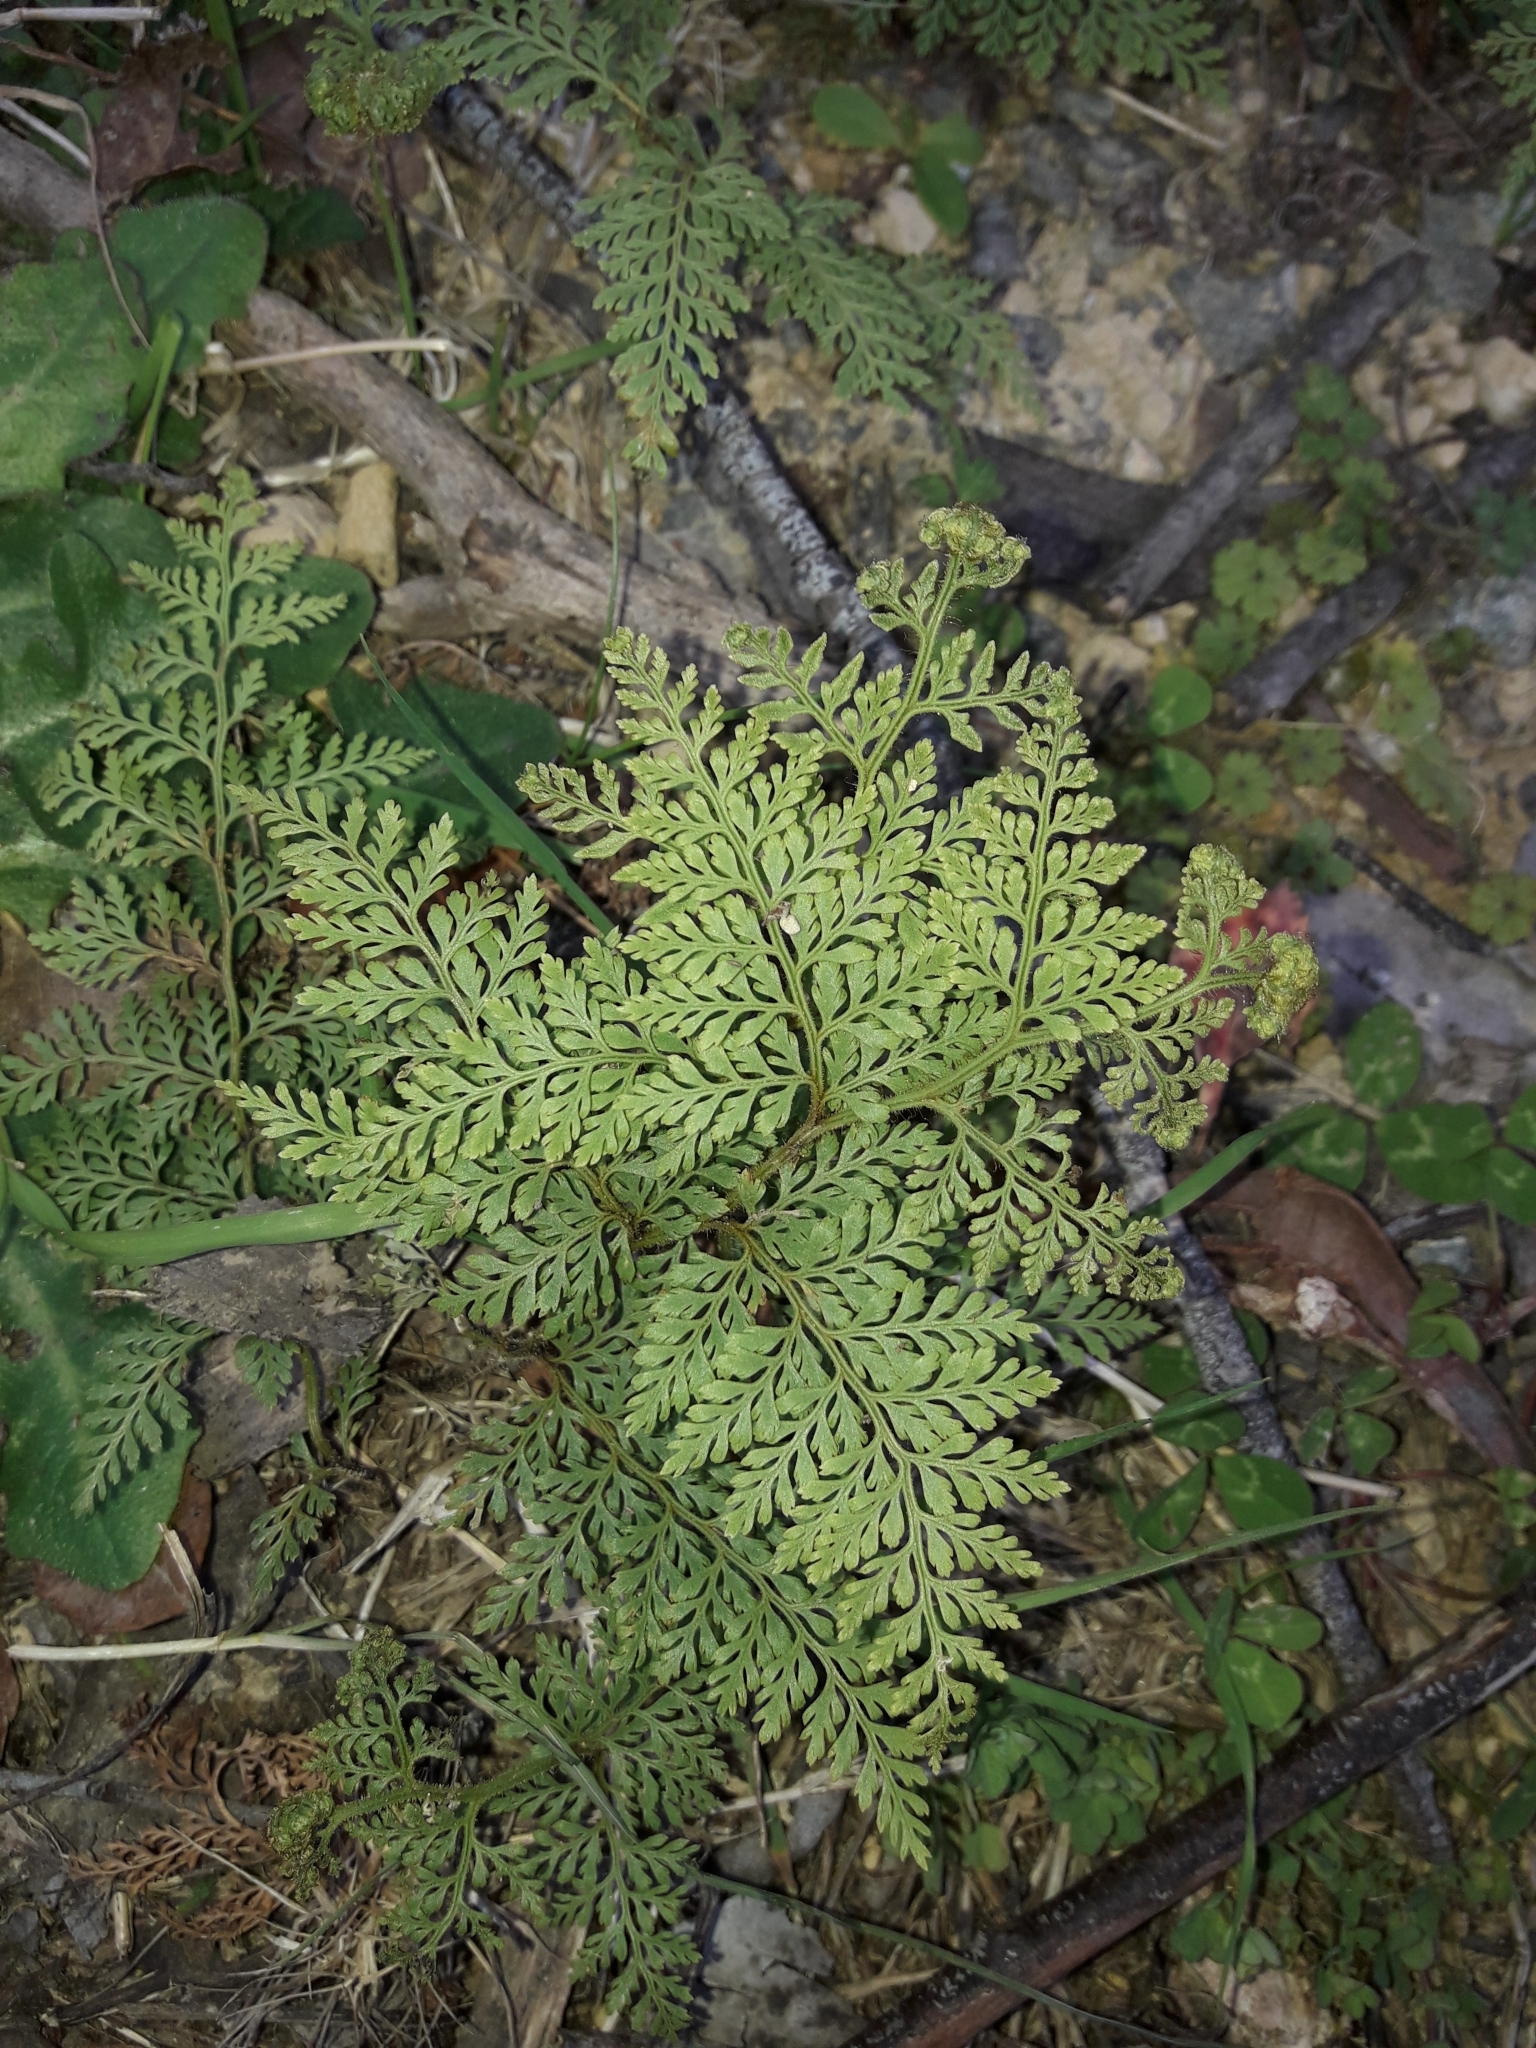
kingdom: Plantae
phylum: Tracheophyta
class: Polypodiopsida
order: Polypodiales
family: Dennstaedtiaceae
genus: Paesia
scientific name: Paesia scaberula
